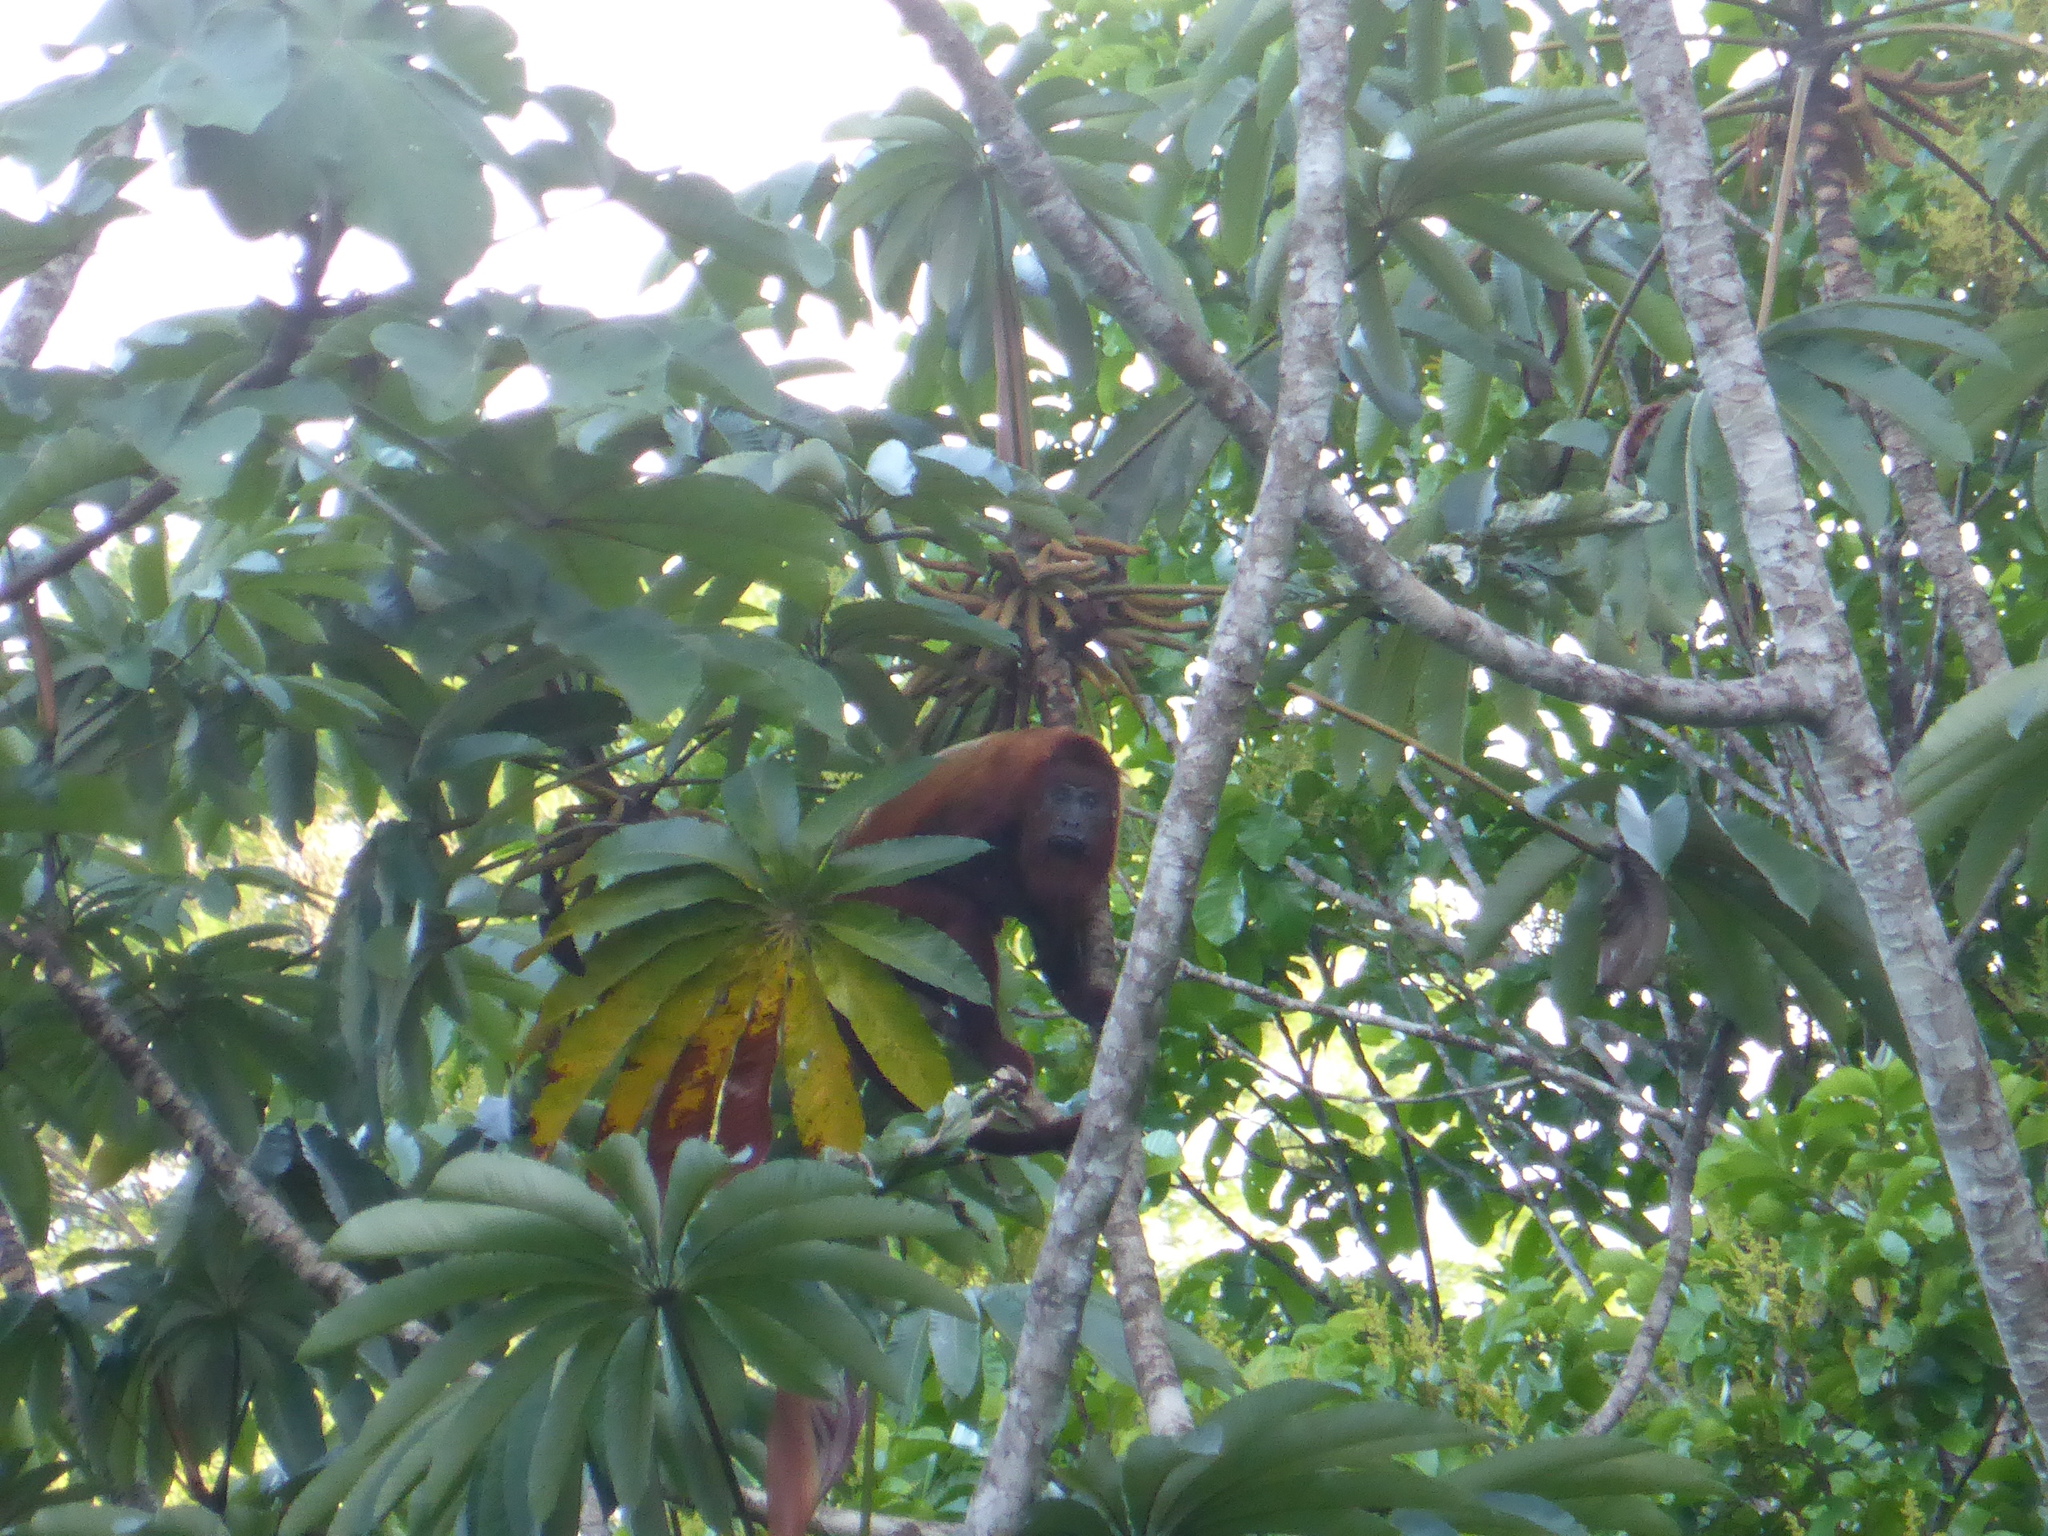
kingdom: Animalia
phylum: Chordata
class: Mammalia
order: Primates
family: Atelidae
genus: Alouatta
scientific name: Alouatta macconnelli
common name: Guyanan red howler
